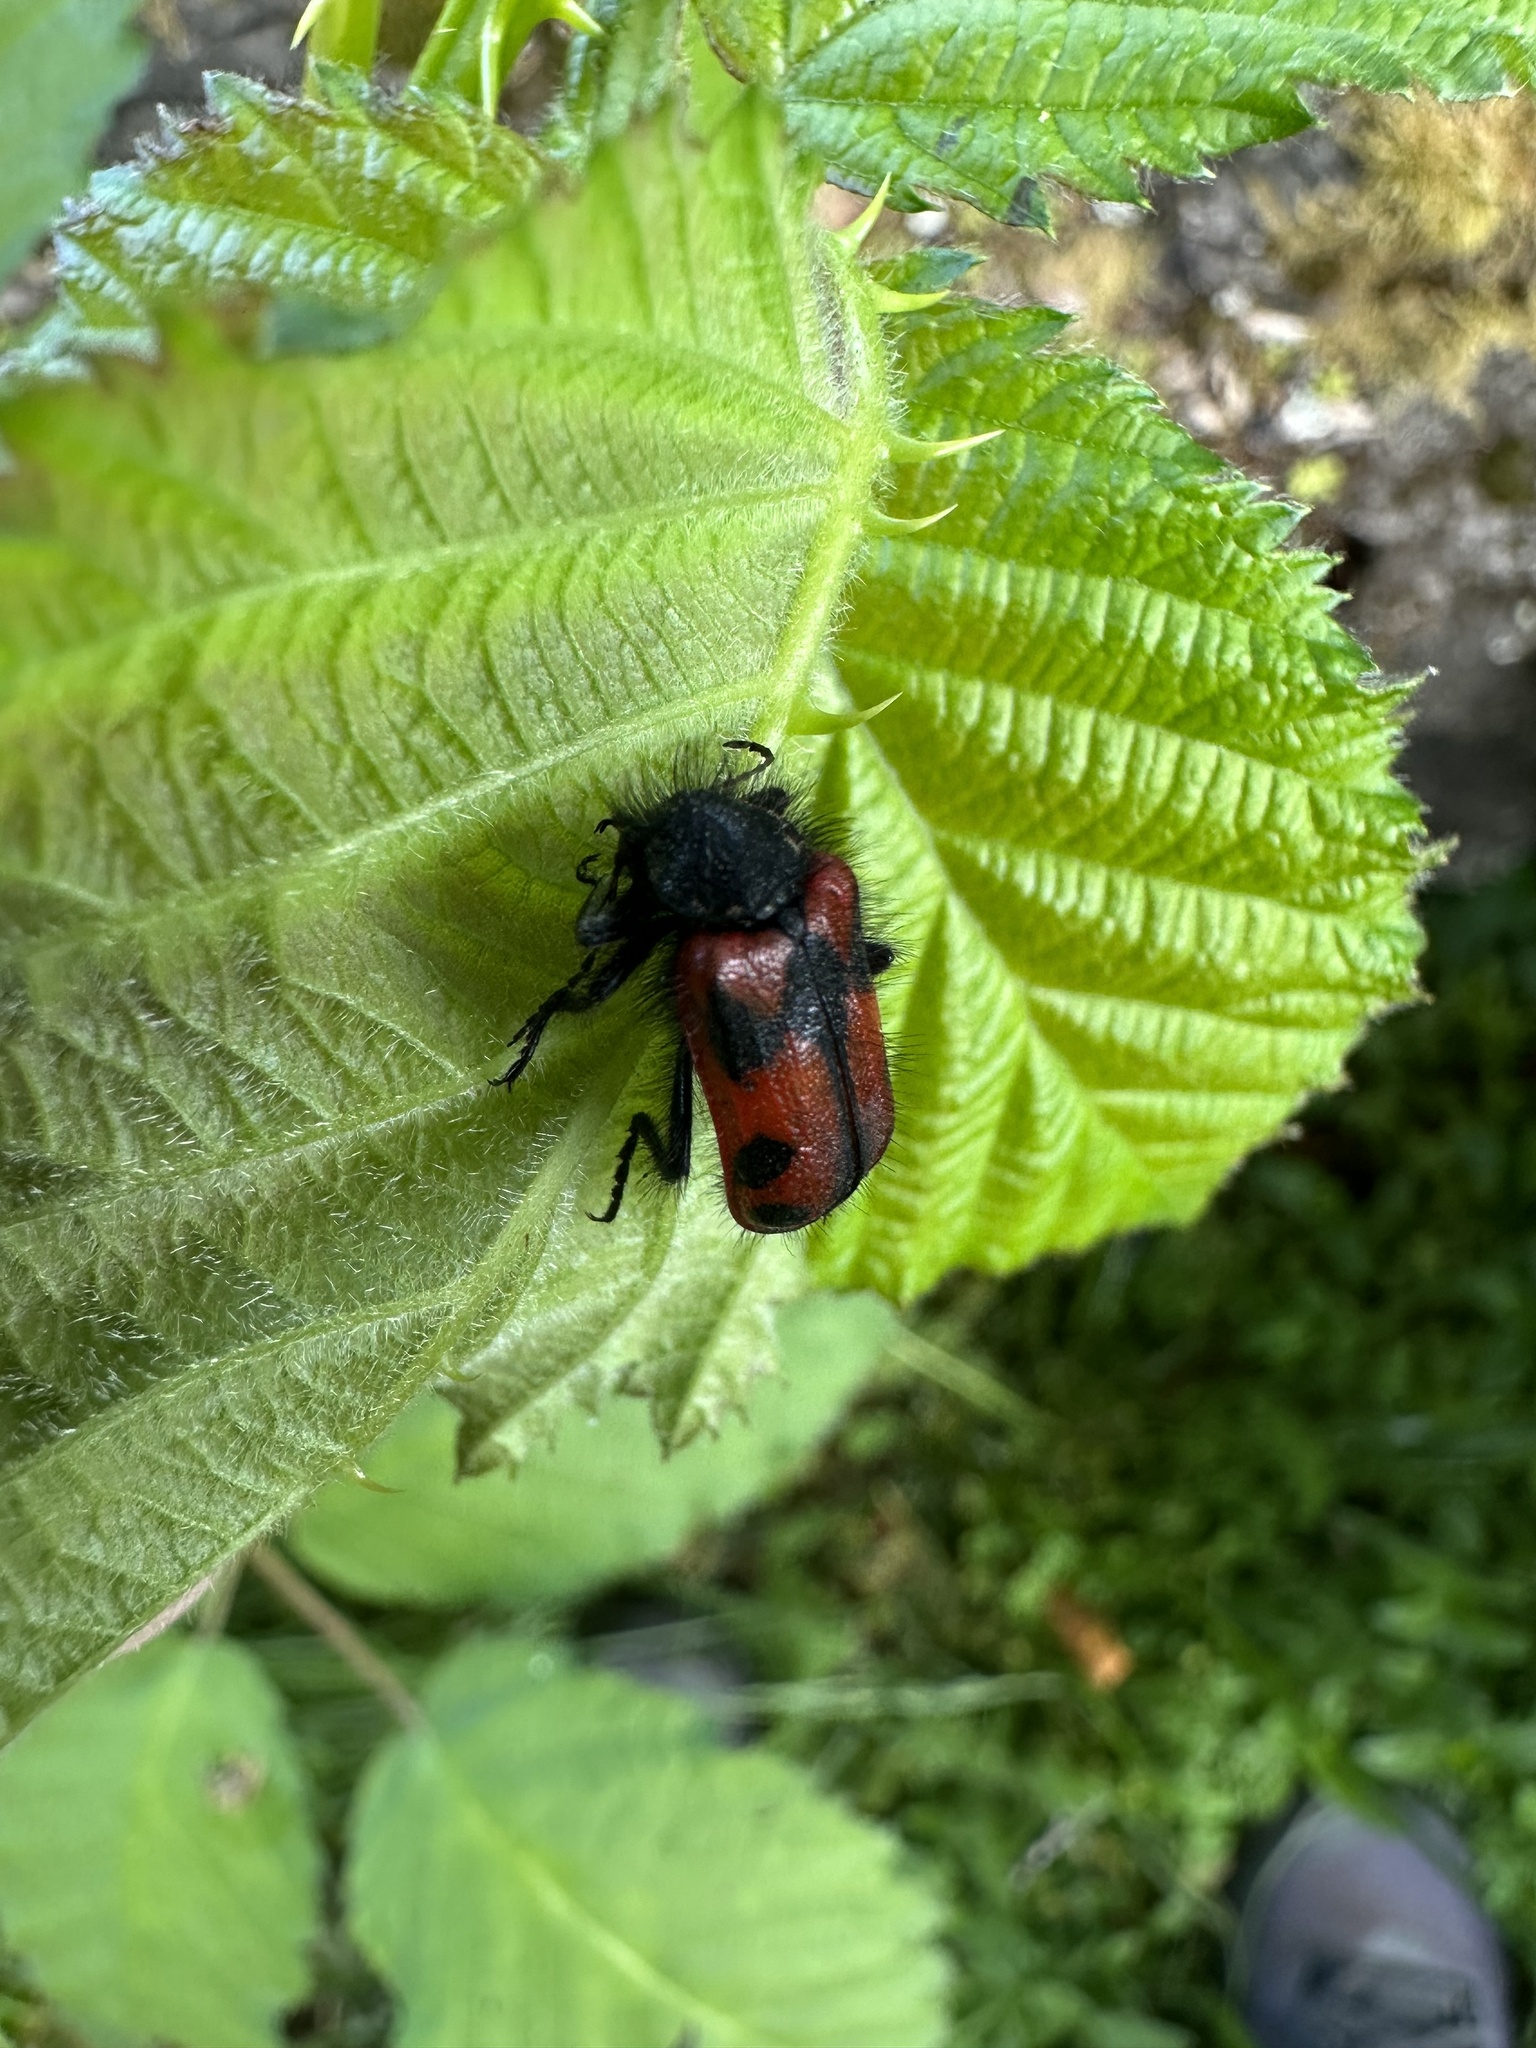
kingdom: Animalia
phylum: Arthropoda
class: Insecta
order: Coleoptera
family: Melyridae
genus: Astylus
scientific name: Astylus
